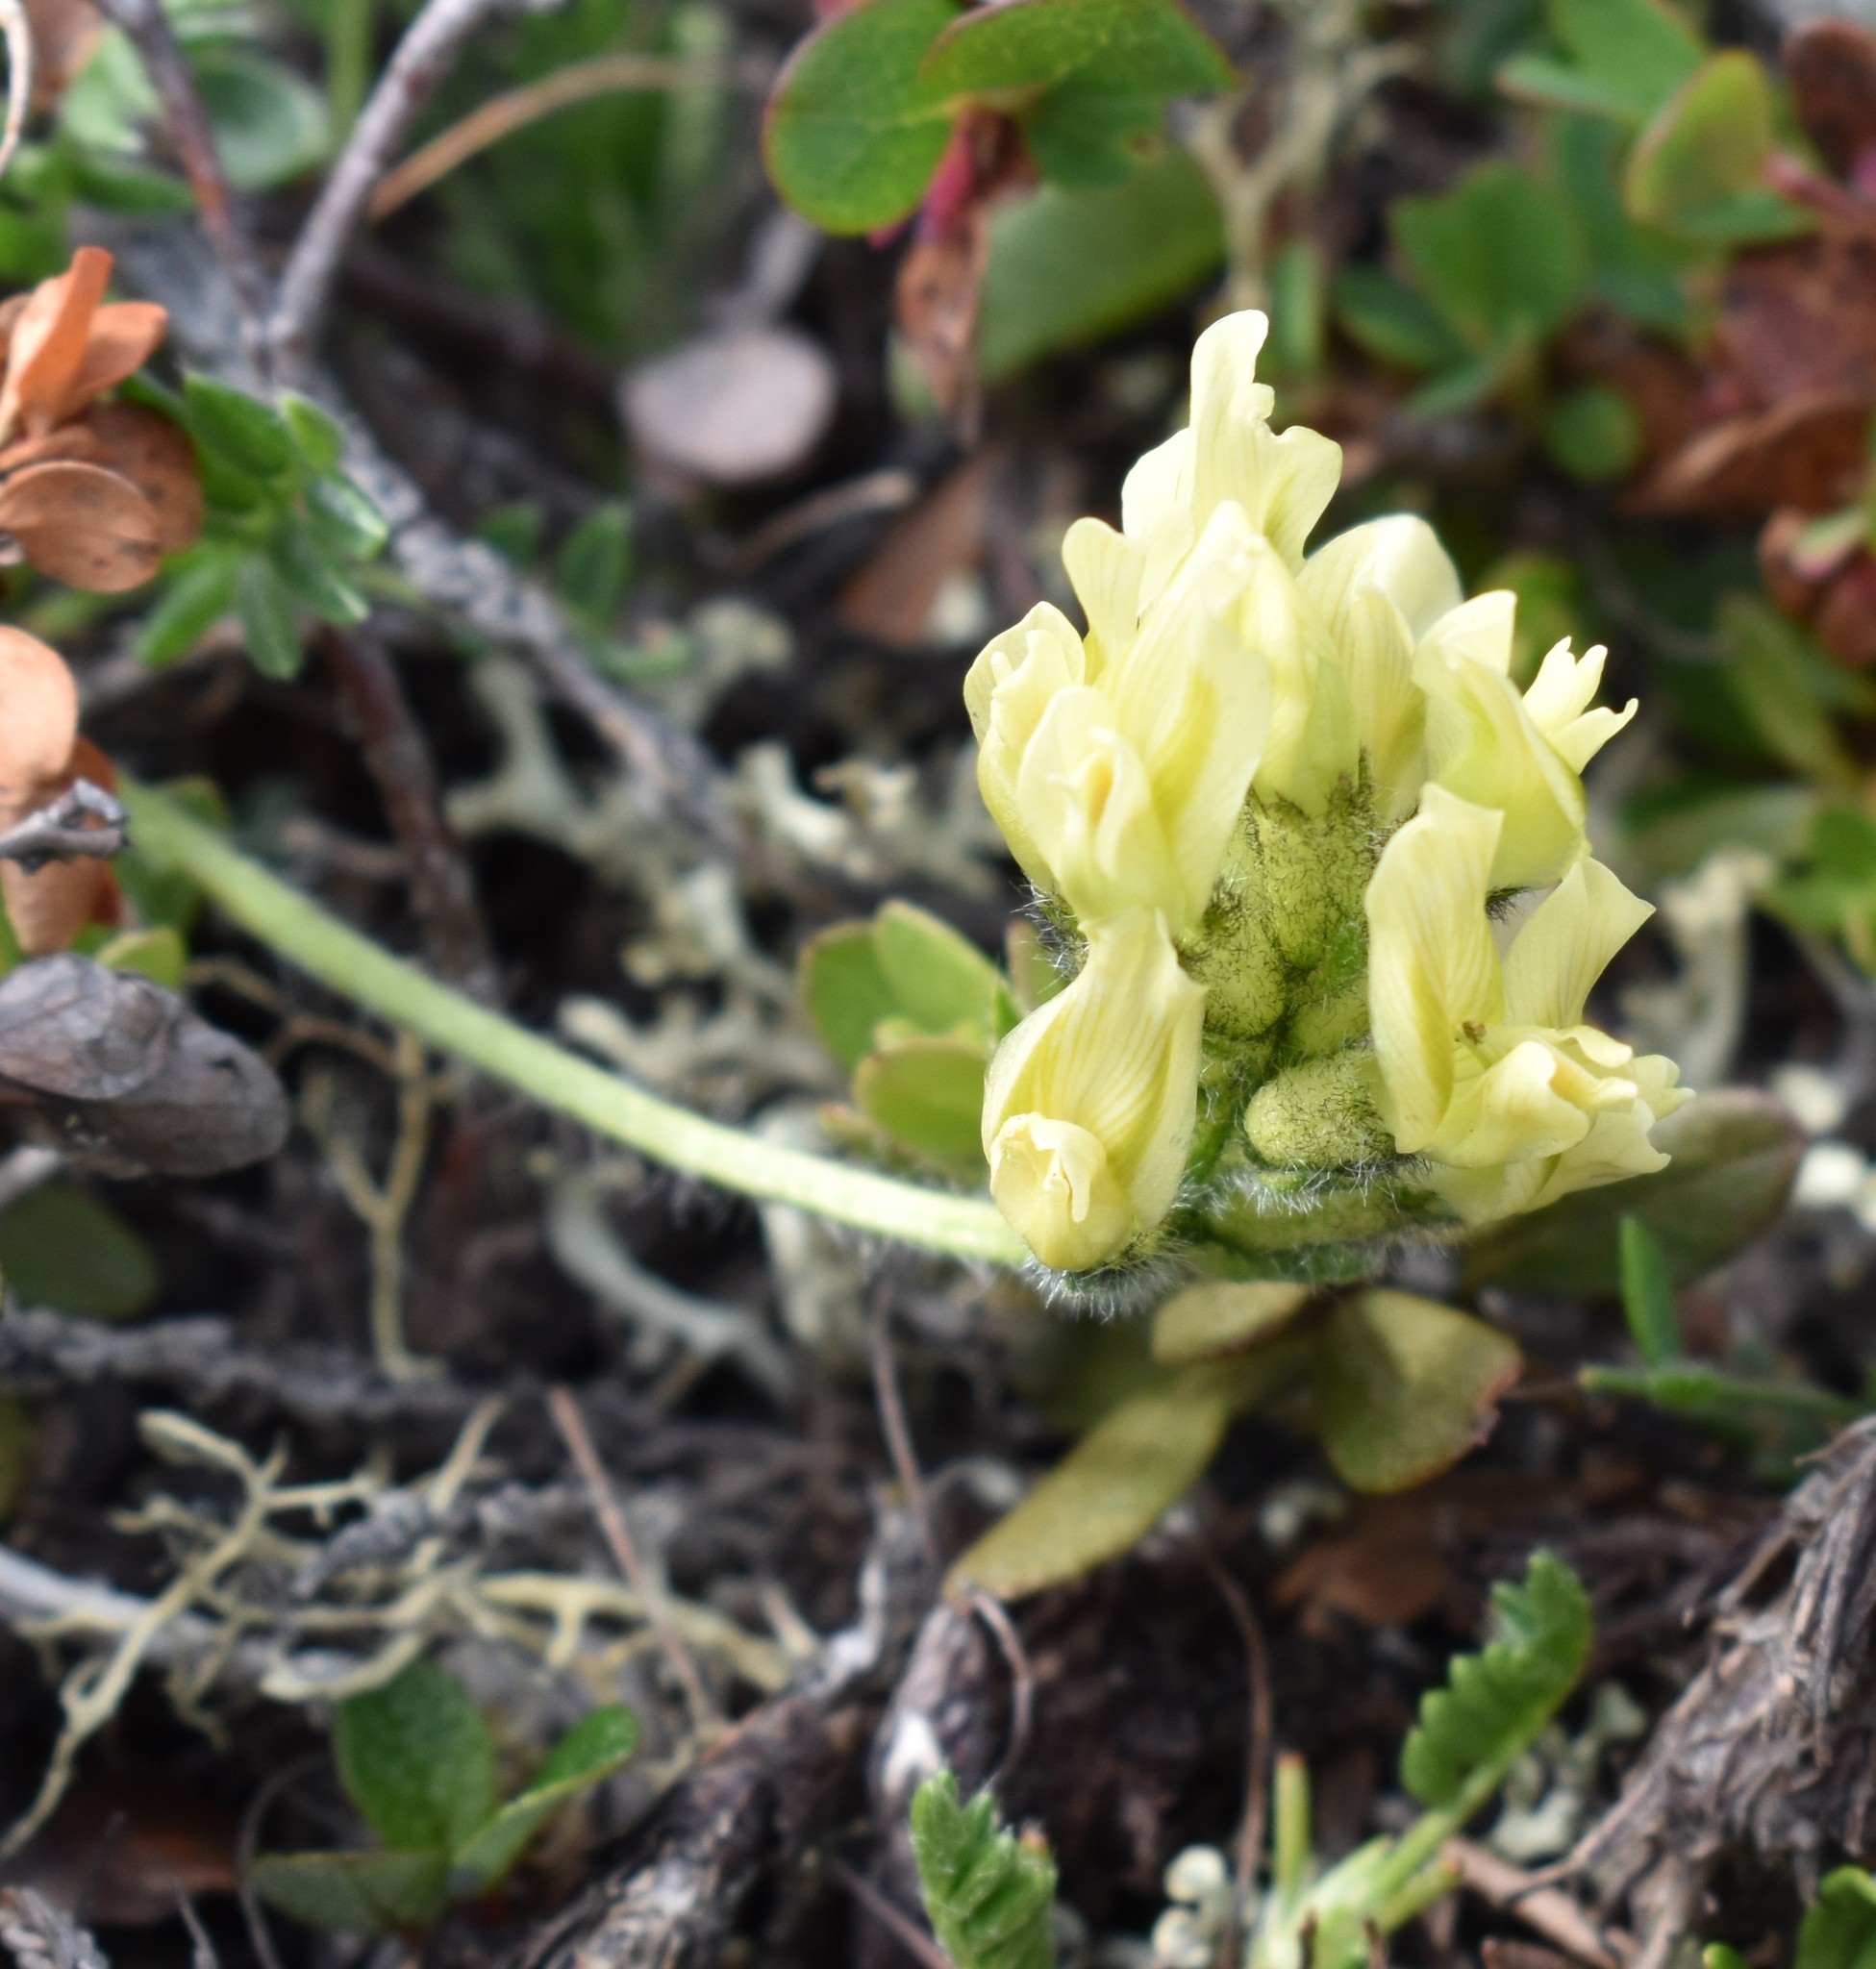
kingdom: Plantae
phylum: Tracheophyta
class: Magnoliopsida
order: Fabales
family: Fabaceae
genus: Oxytropis
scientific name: Oxytropis maydelliana
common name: Maydell's locoweed
